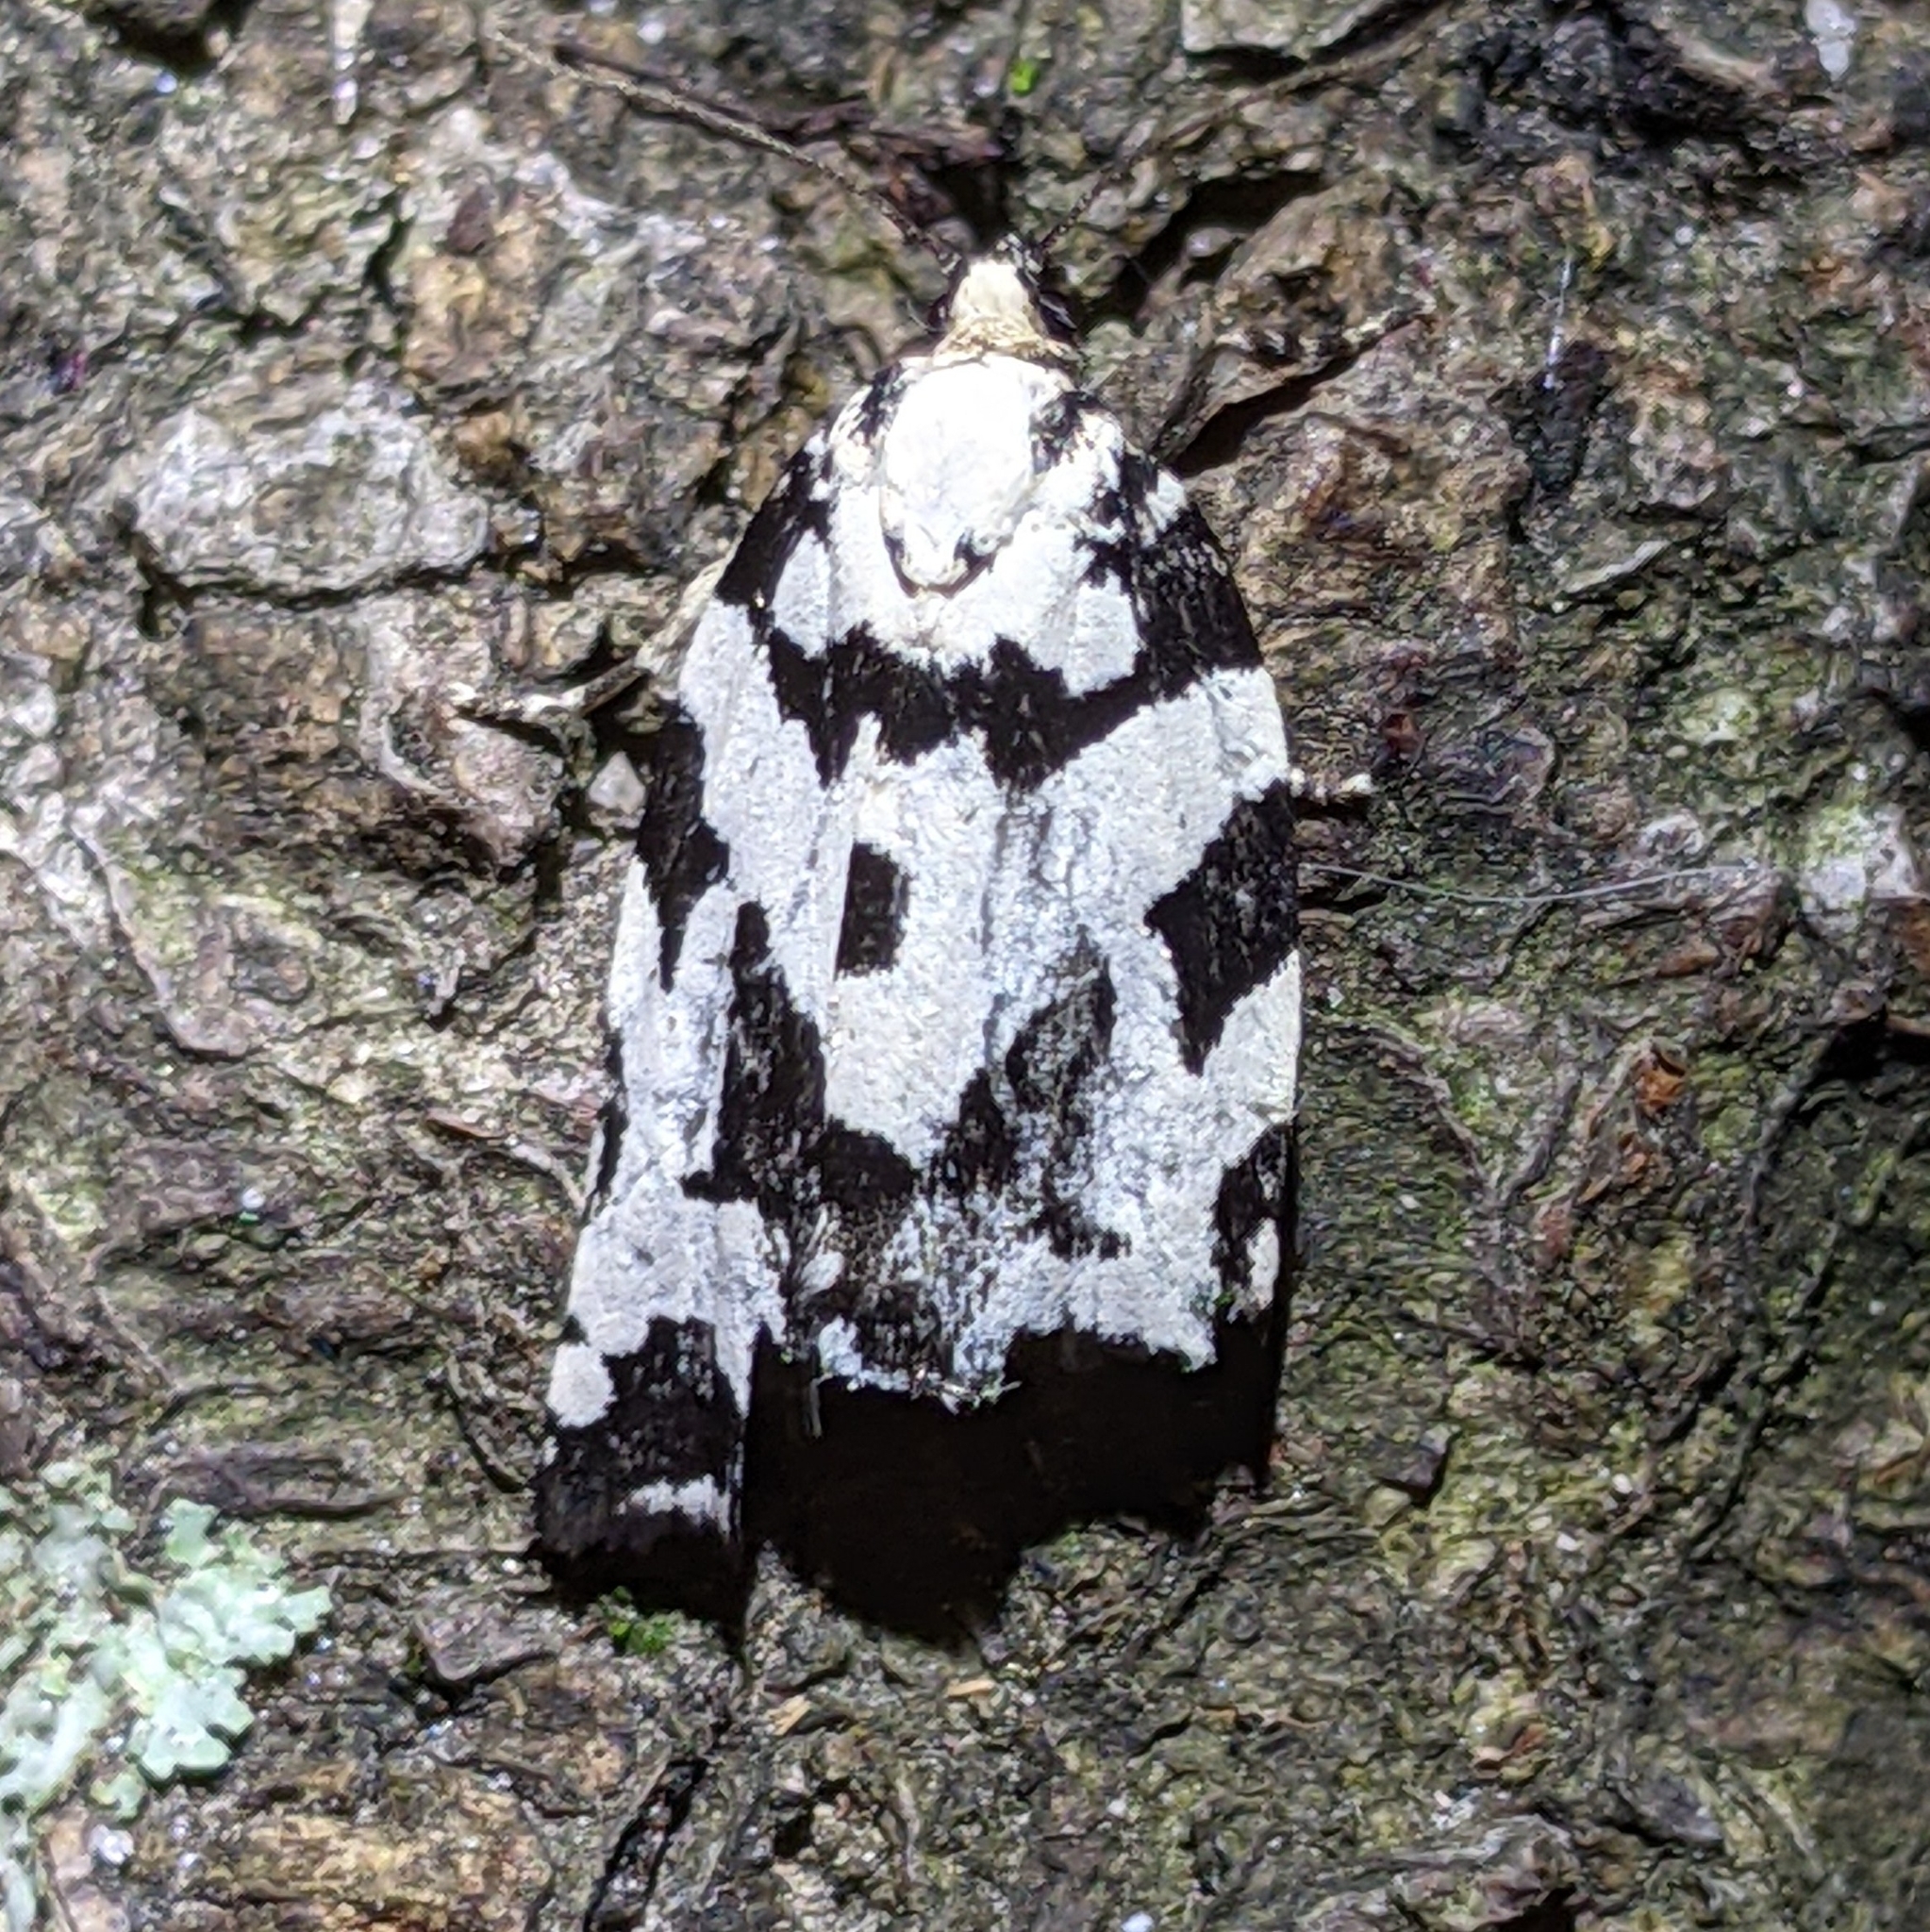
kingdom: Animalia
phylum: Arthropoda
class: Insecta
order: Lepidoptera
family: Tortricidae
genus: Archips
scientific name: Archips dissitana
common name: Boldly-marked archips moth
